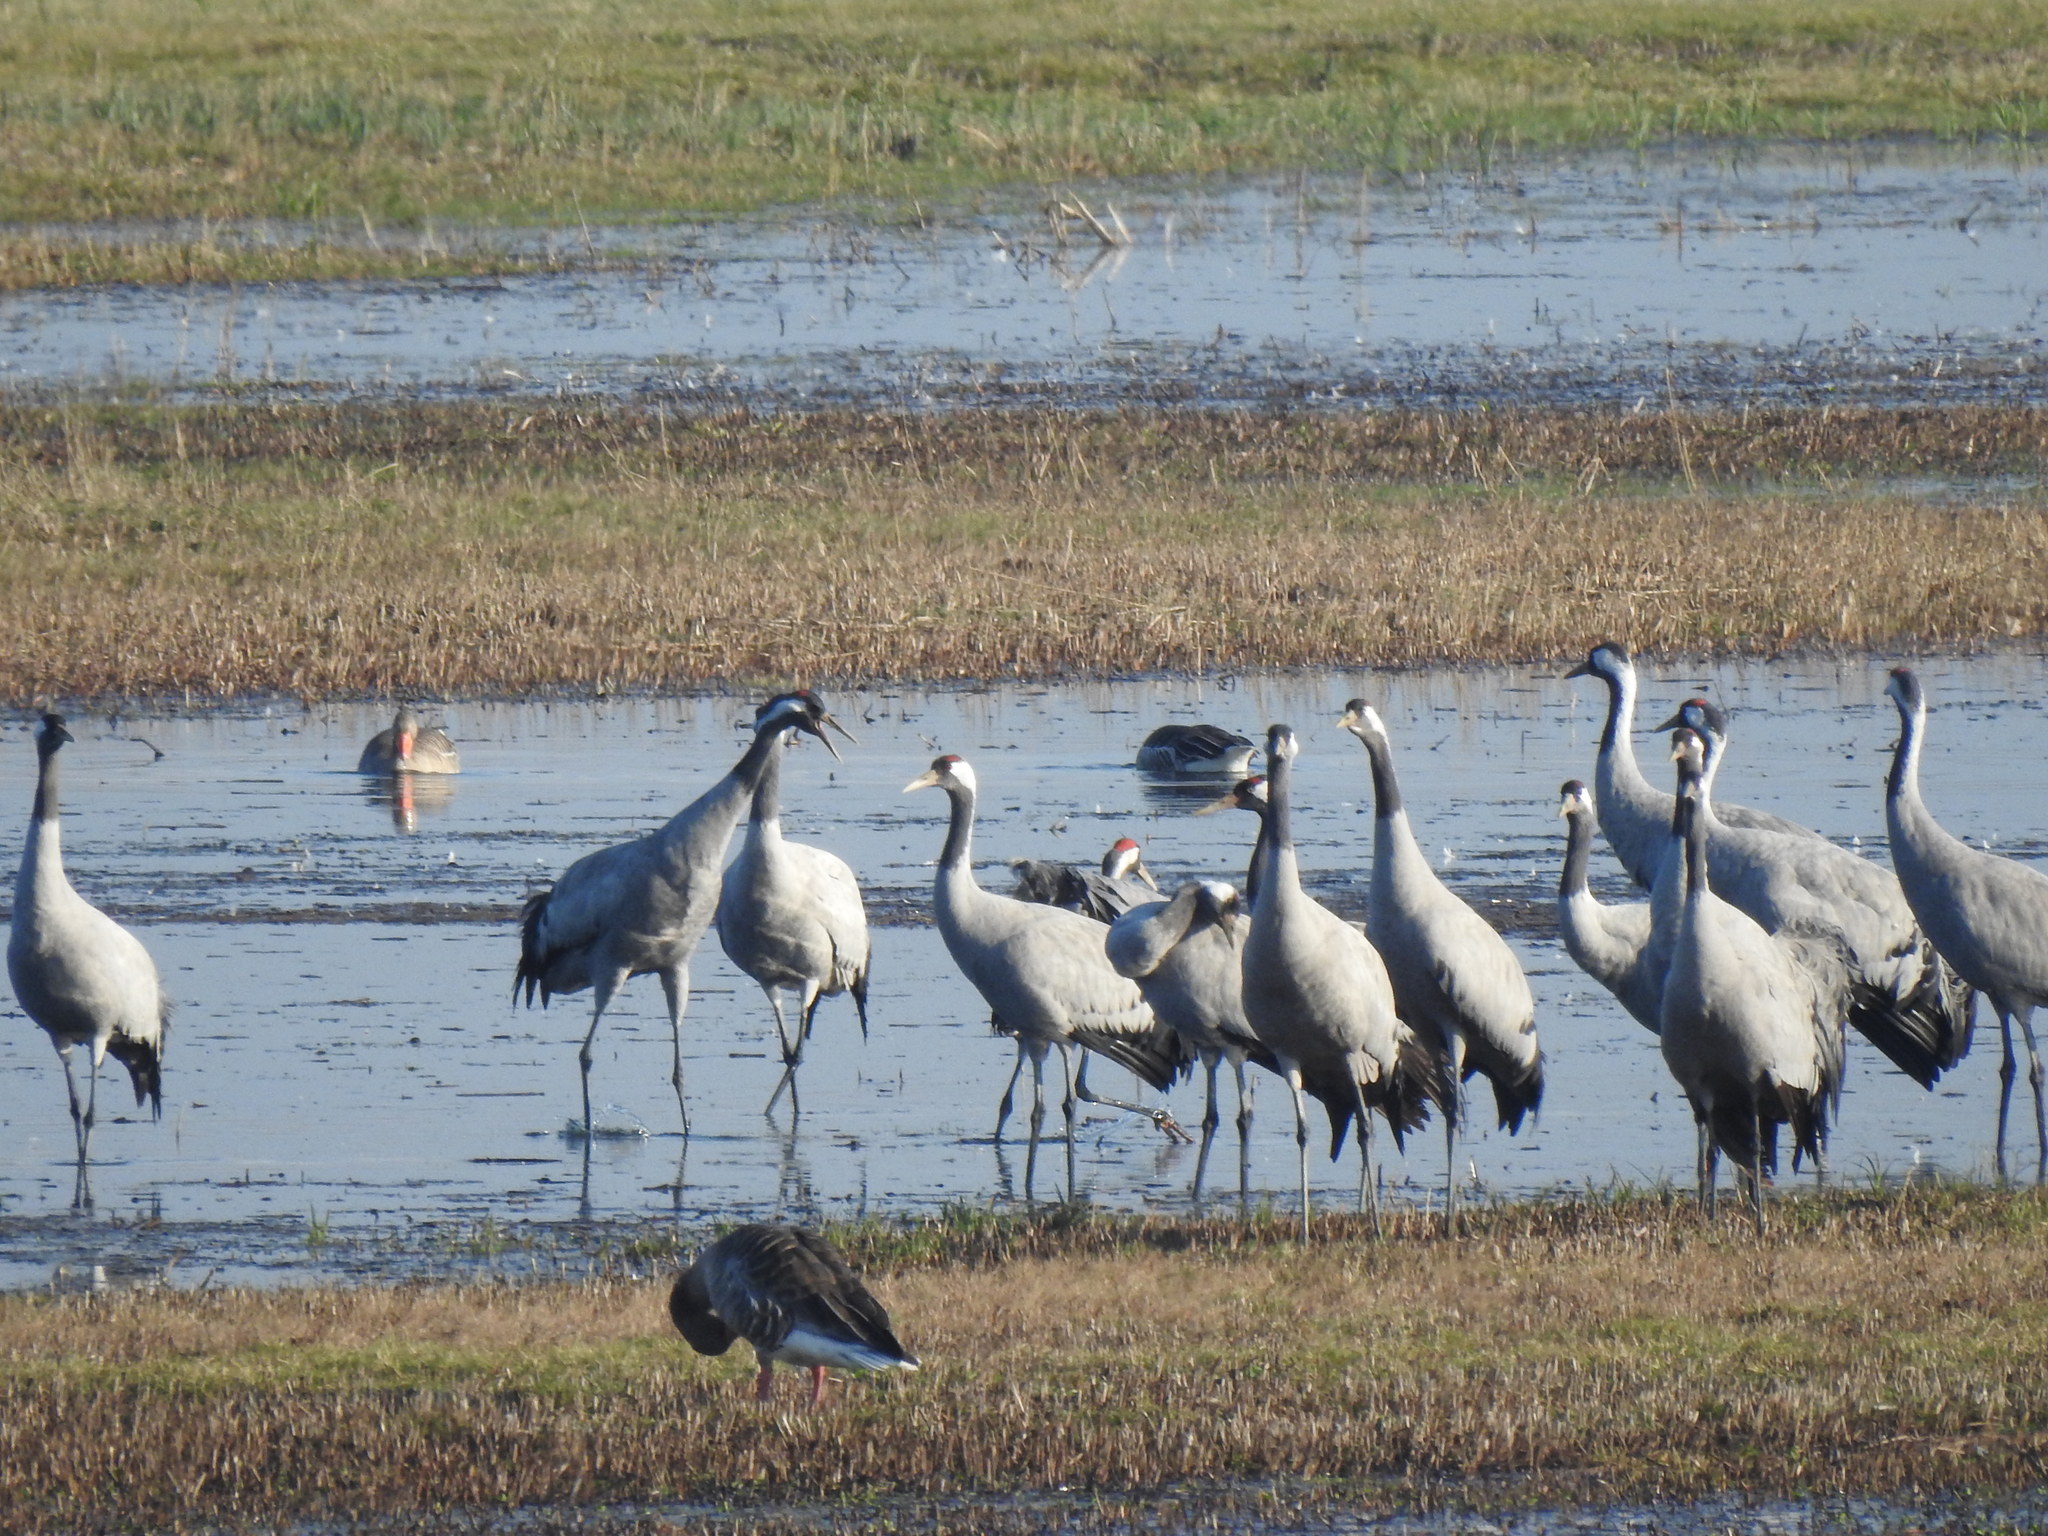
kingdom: Animalia
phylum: Chordata
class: Aves
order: Gruiformes
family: Gruidae
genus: Grus
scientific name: Grus grus
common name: Common crane
